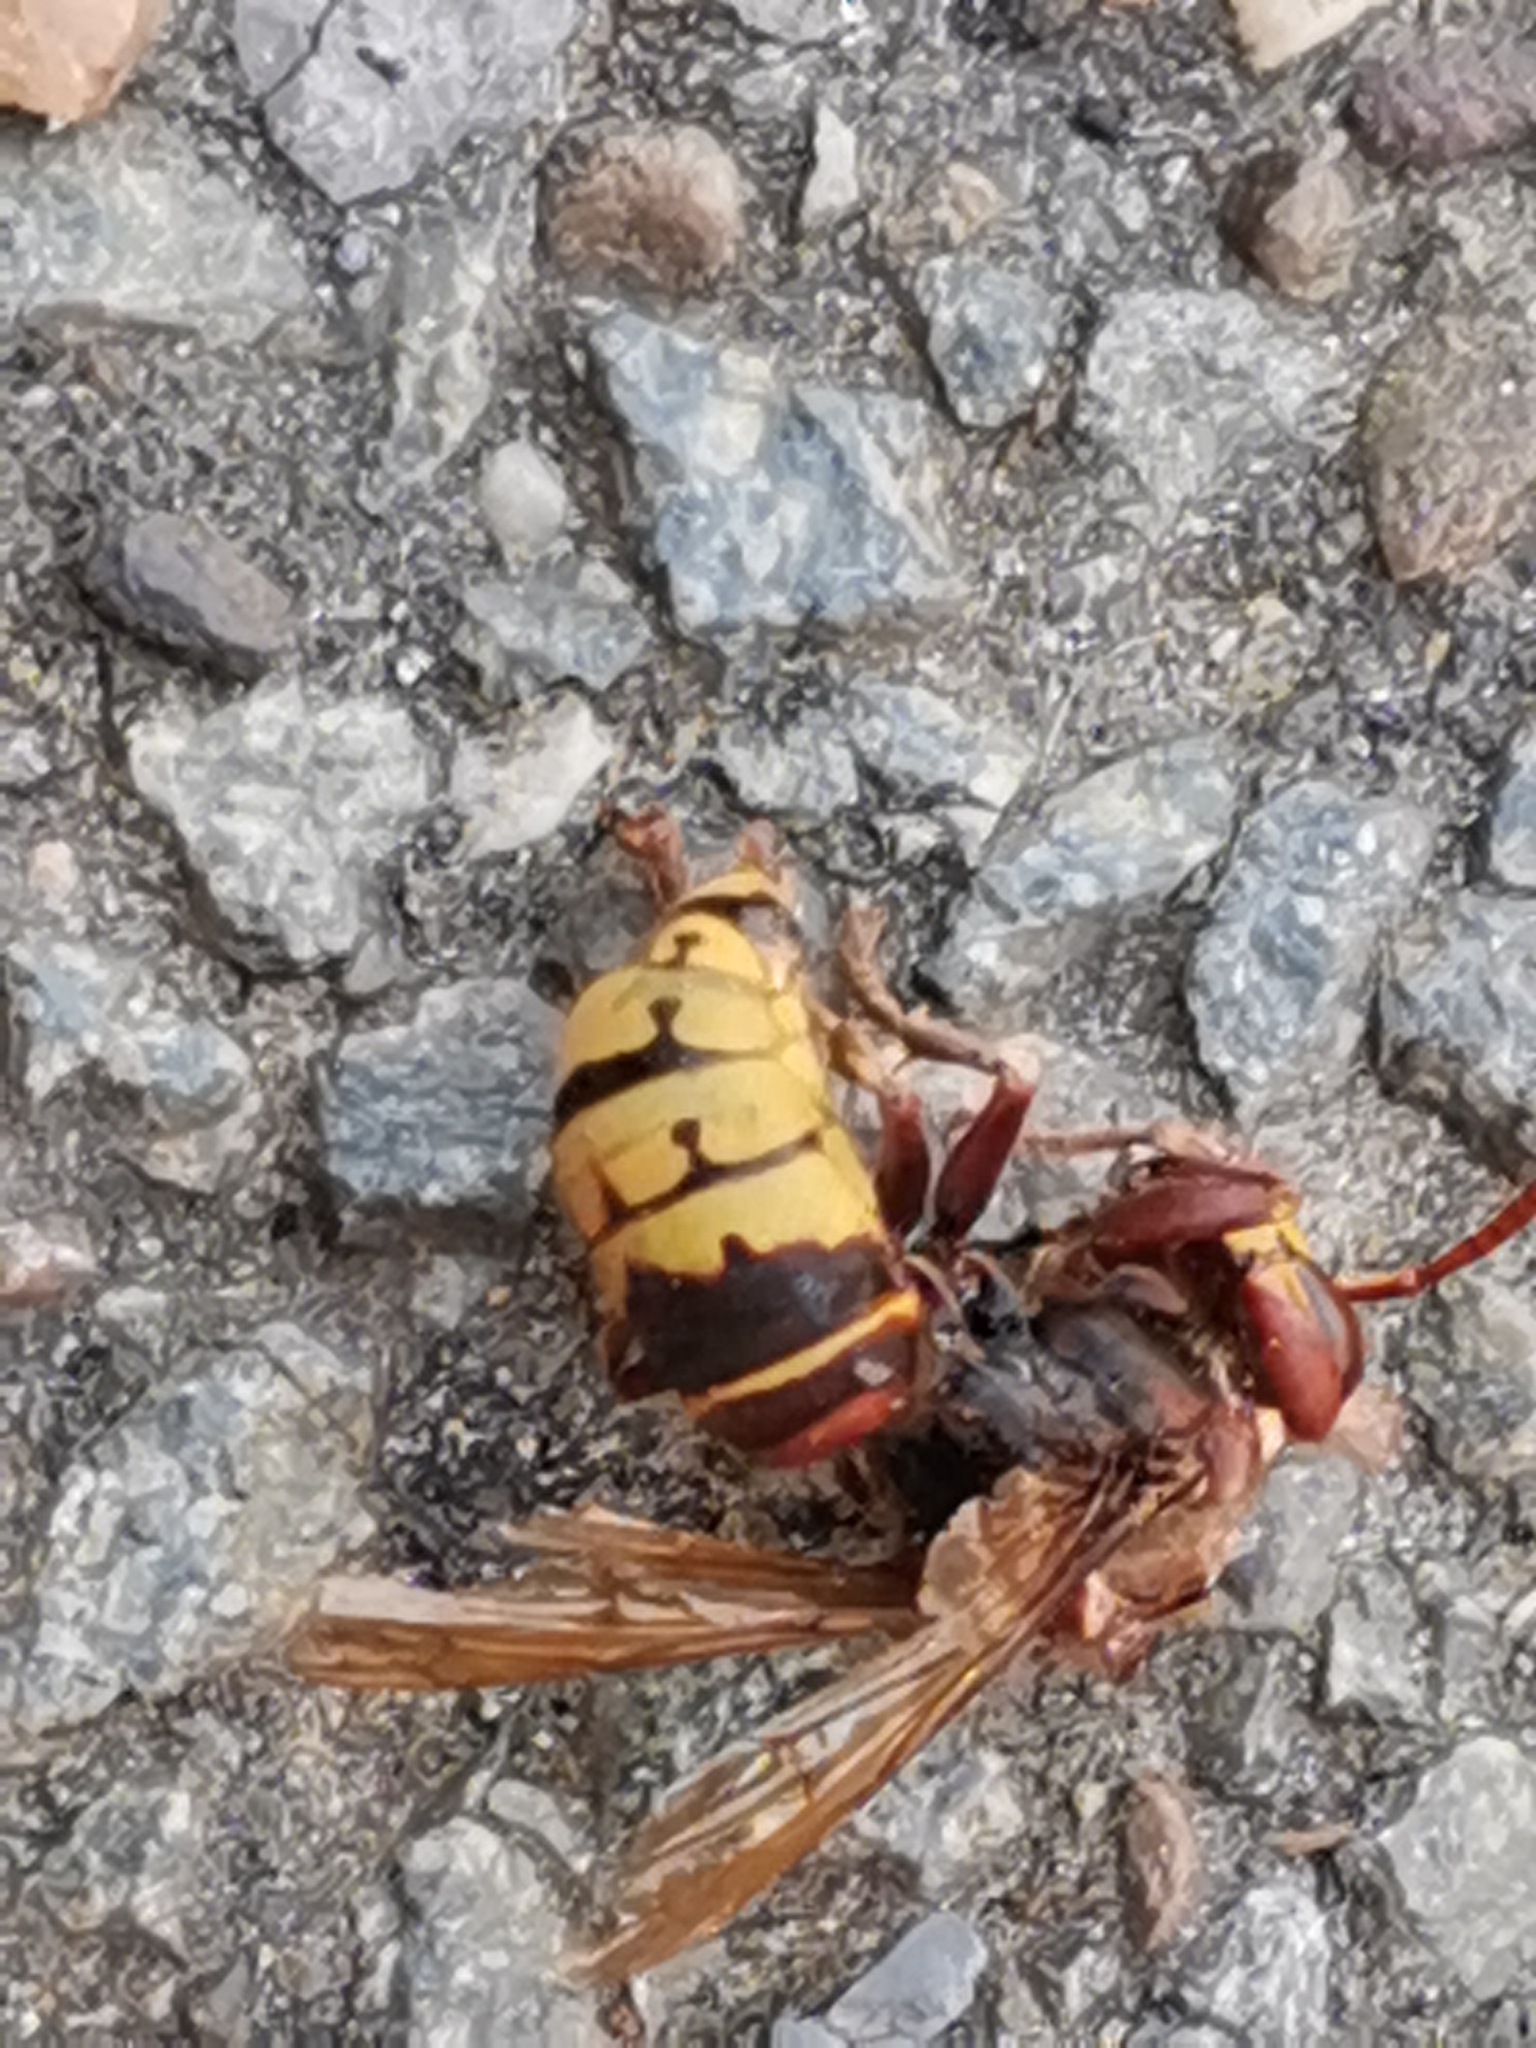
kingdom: Animalia
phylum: Arthropoda
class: Insecta
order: Hymenoptera
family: Vespidae
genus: Vespa
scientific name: Vespa crabro
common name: Hornet
